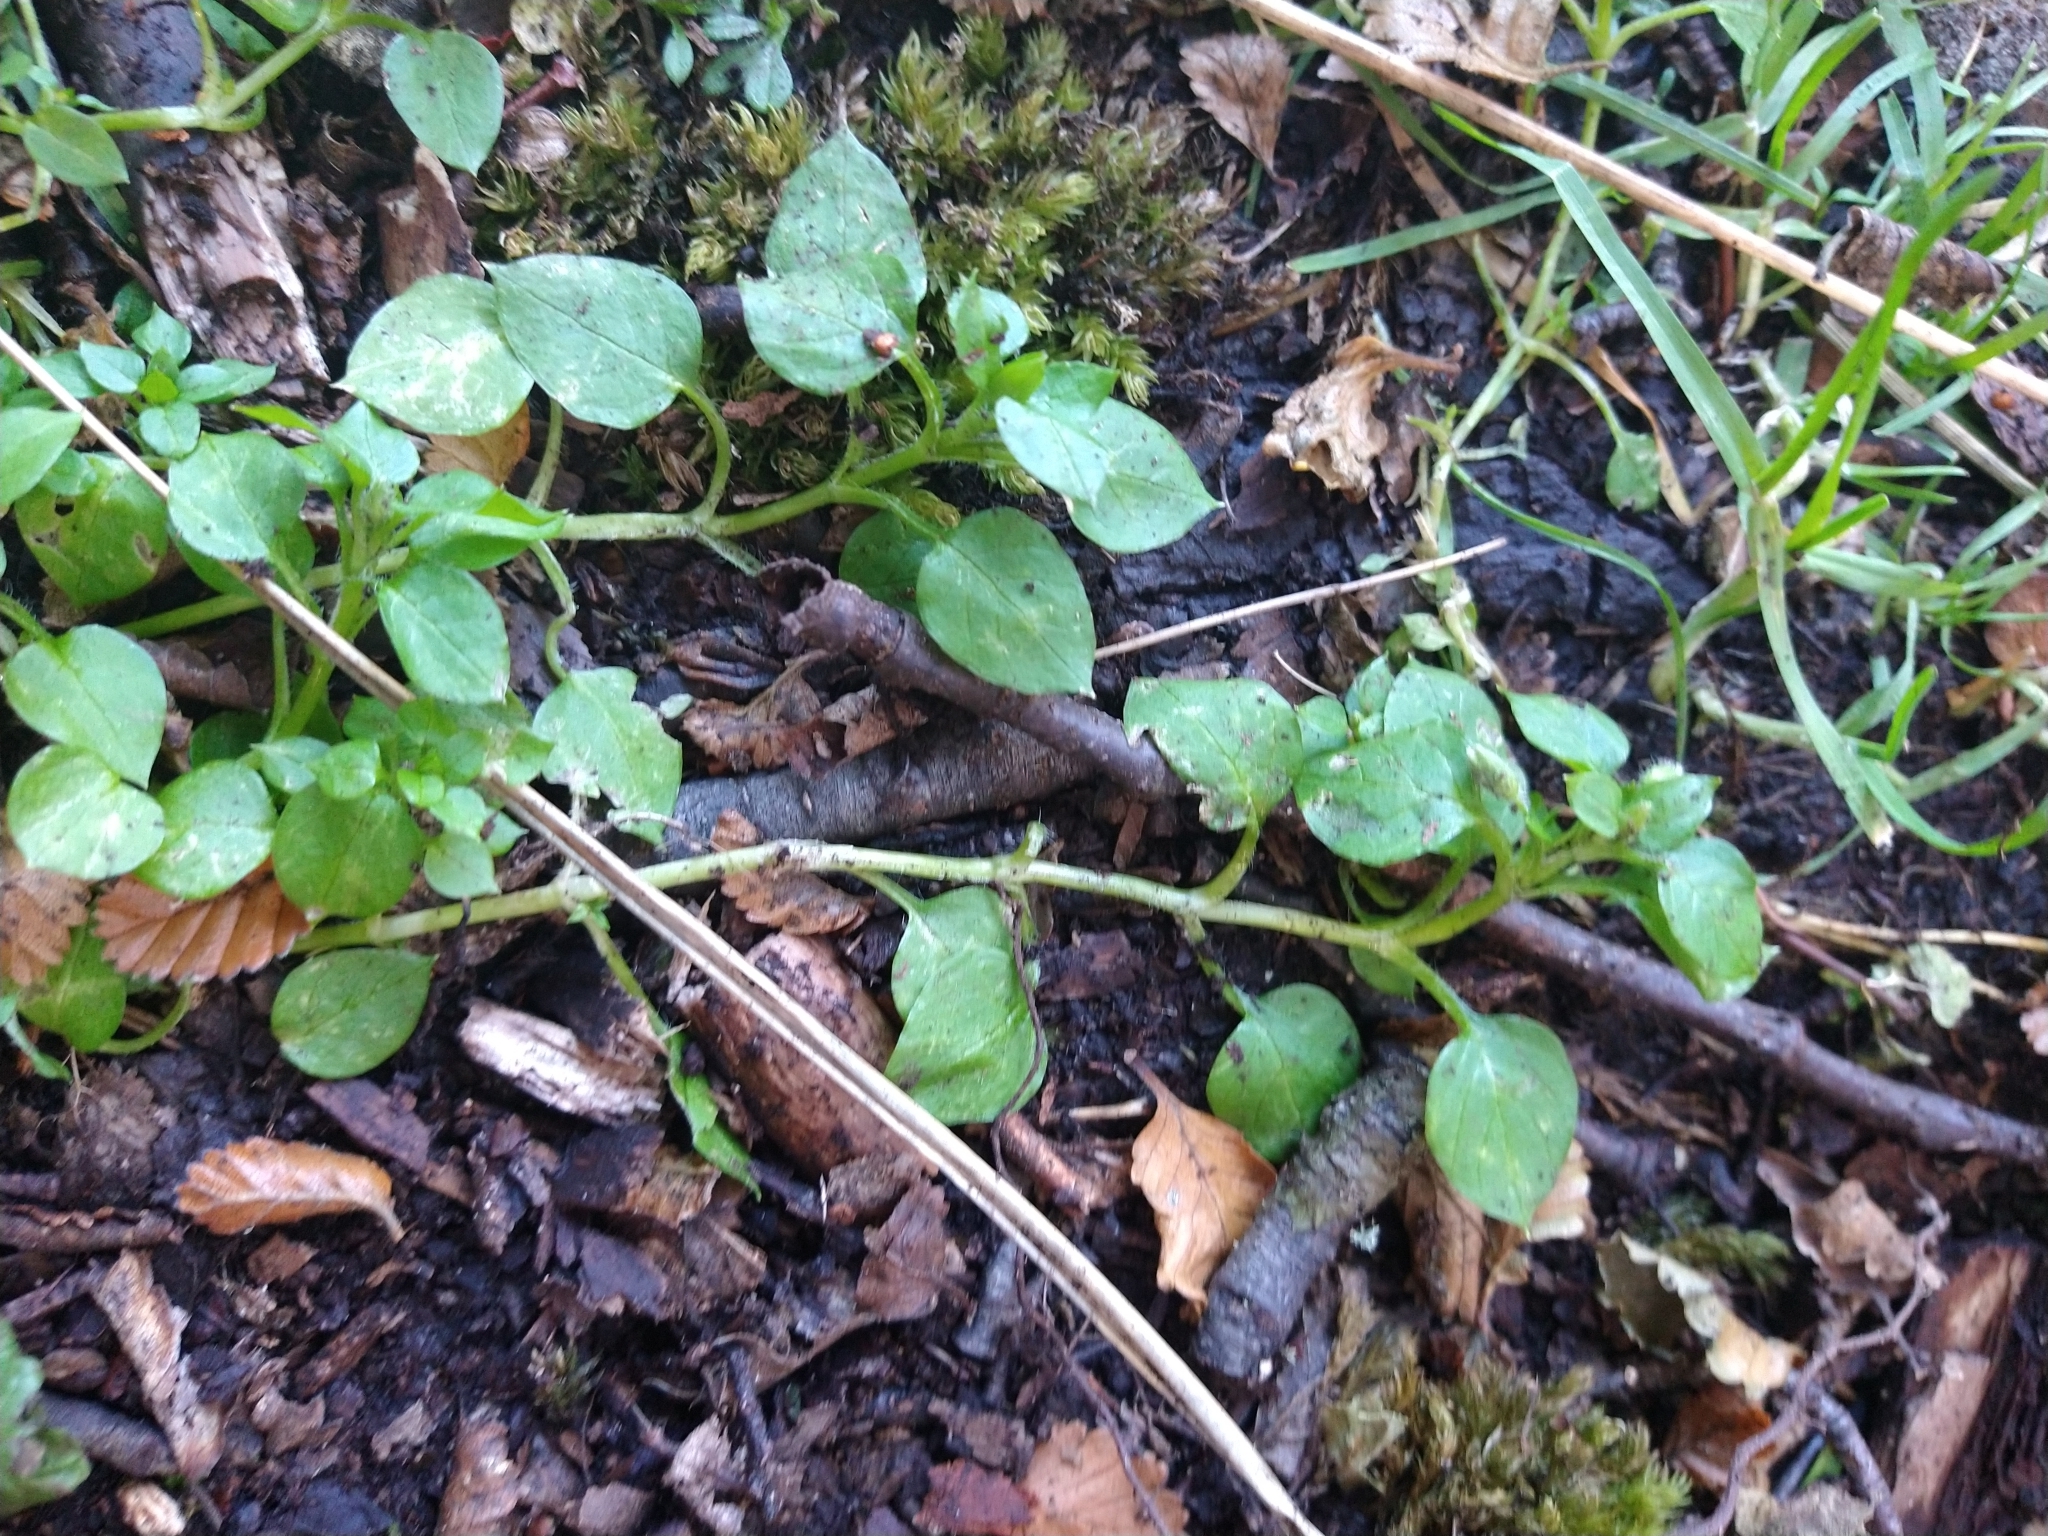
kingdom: Plantae
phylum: Tracheophyta
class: Magnoliopsida
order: Caryophyllales
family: Caryophyllaceae
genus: Stellaria
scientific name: Stellaria media
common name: Common chickweed
